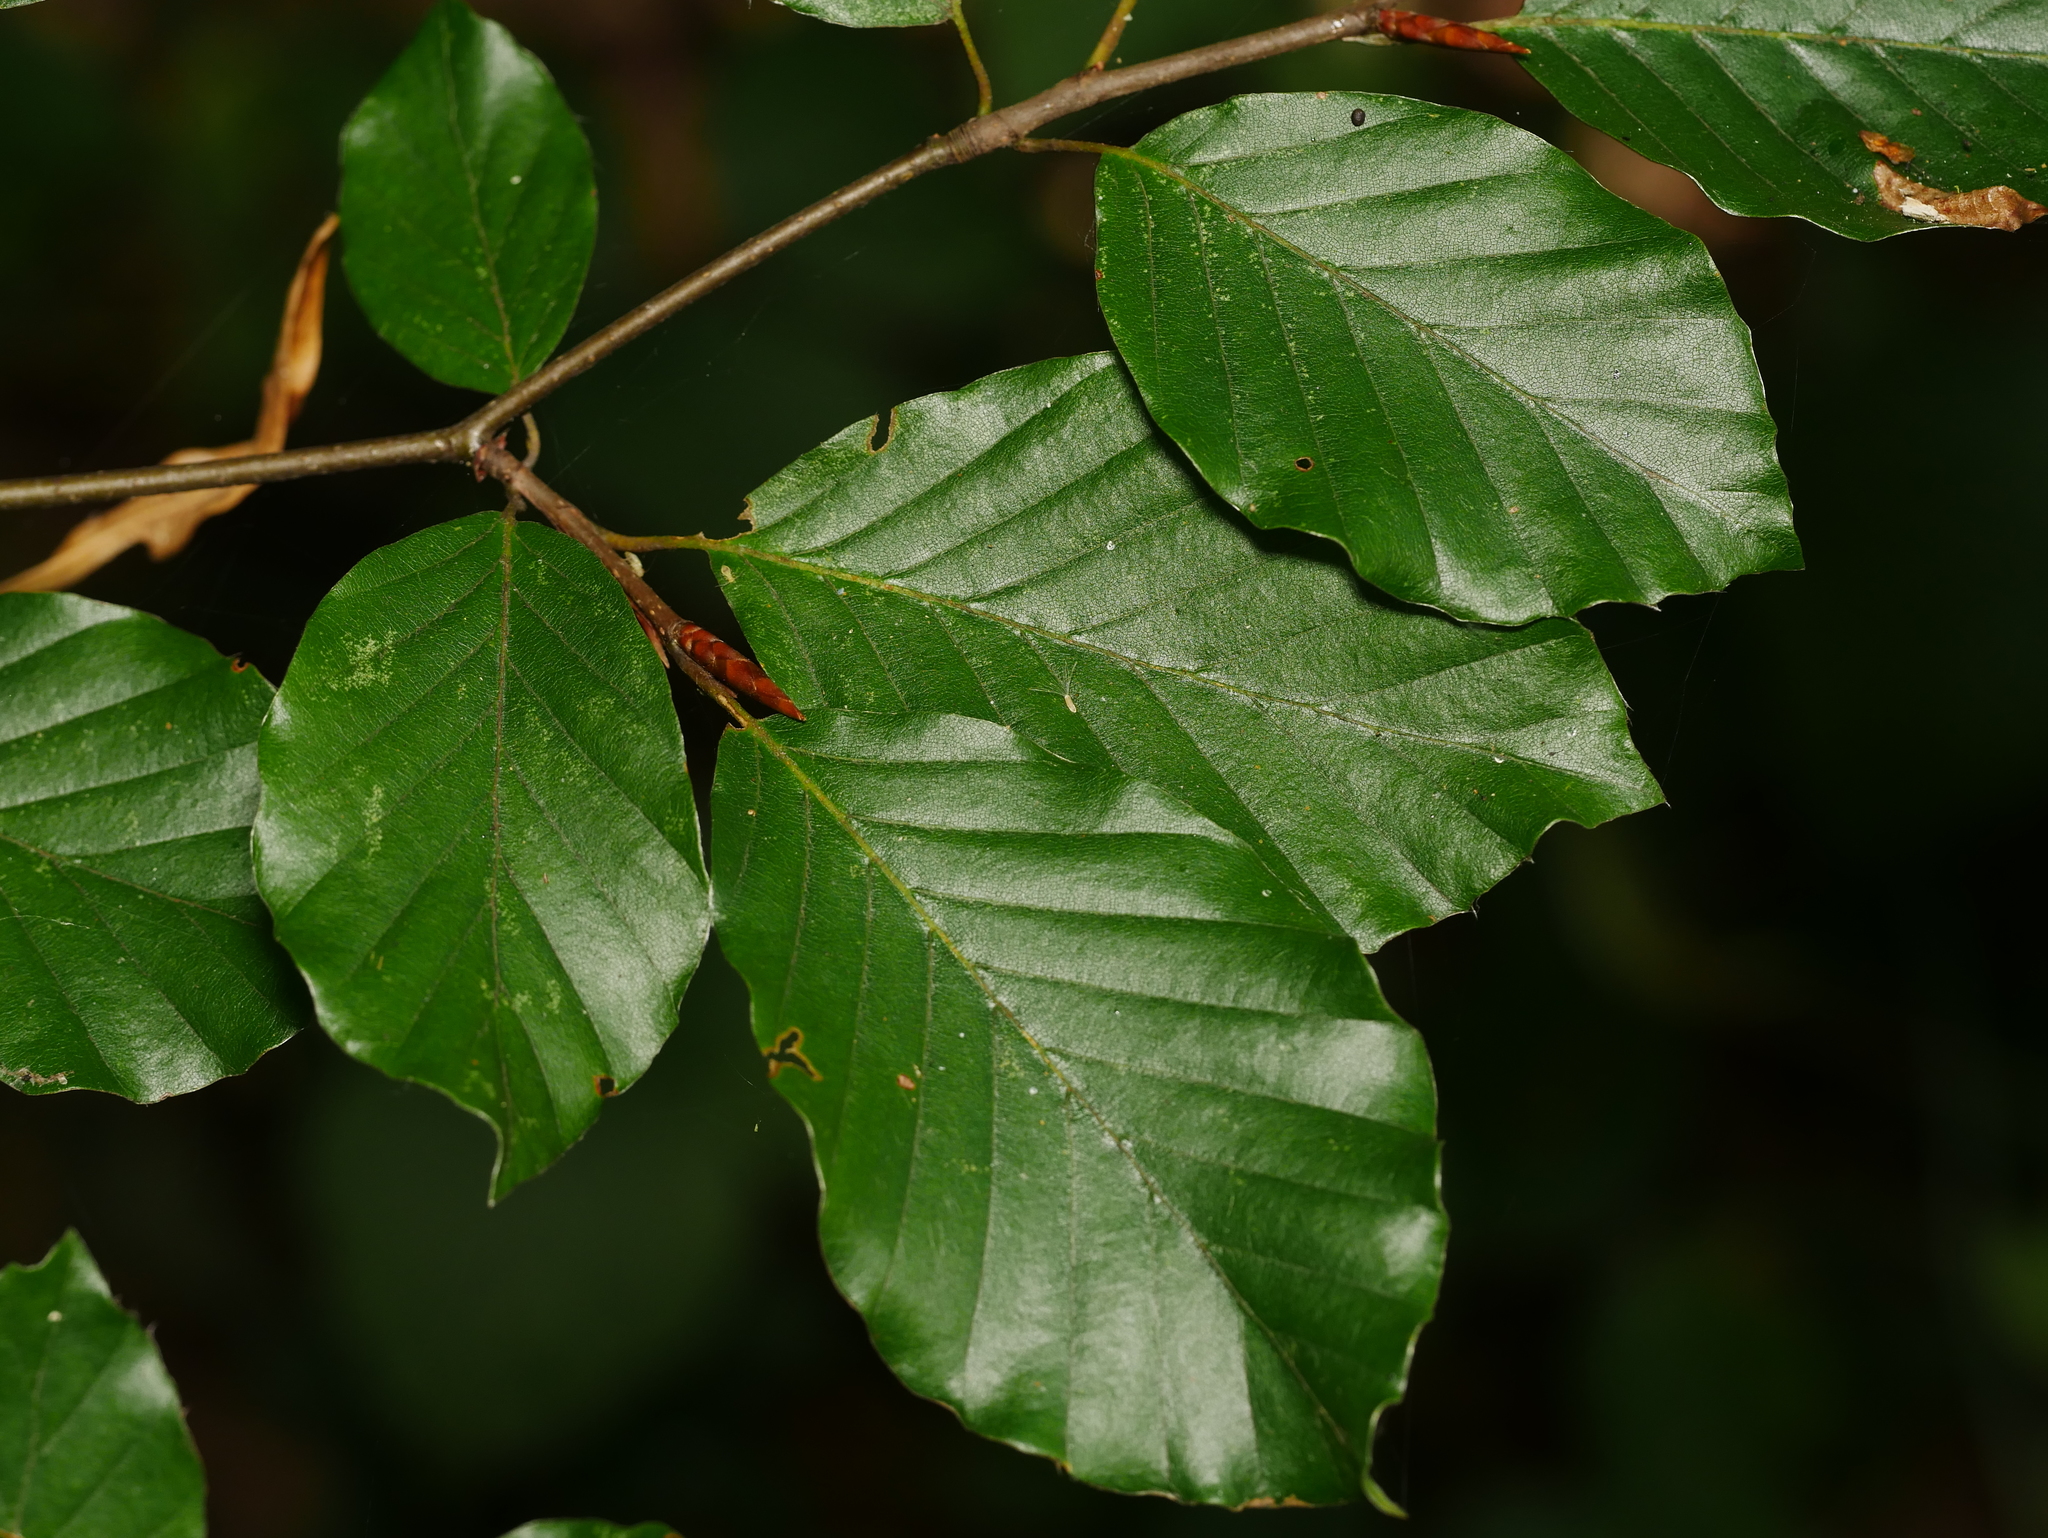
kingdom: Plantae
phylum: Tracheophyta
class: Magnoliopsida
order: Fagales
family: Fagaceae
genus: Fagus
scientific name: Fagus sylvatica
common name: Beech
